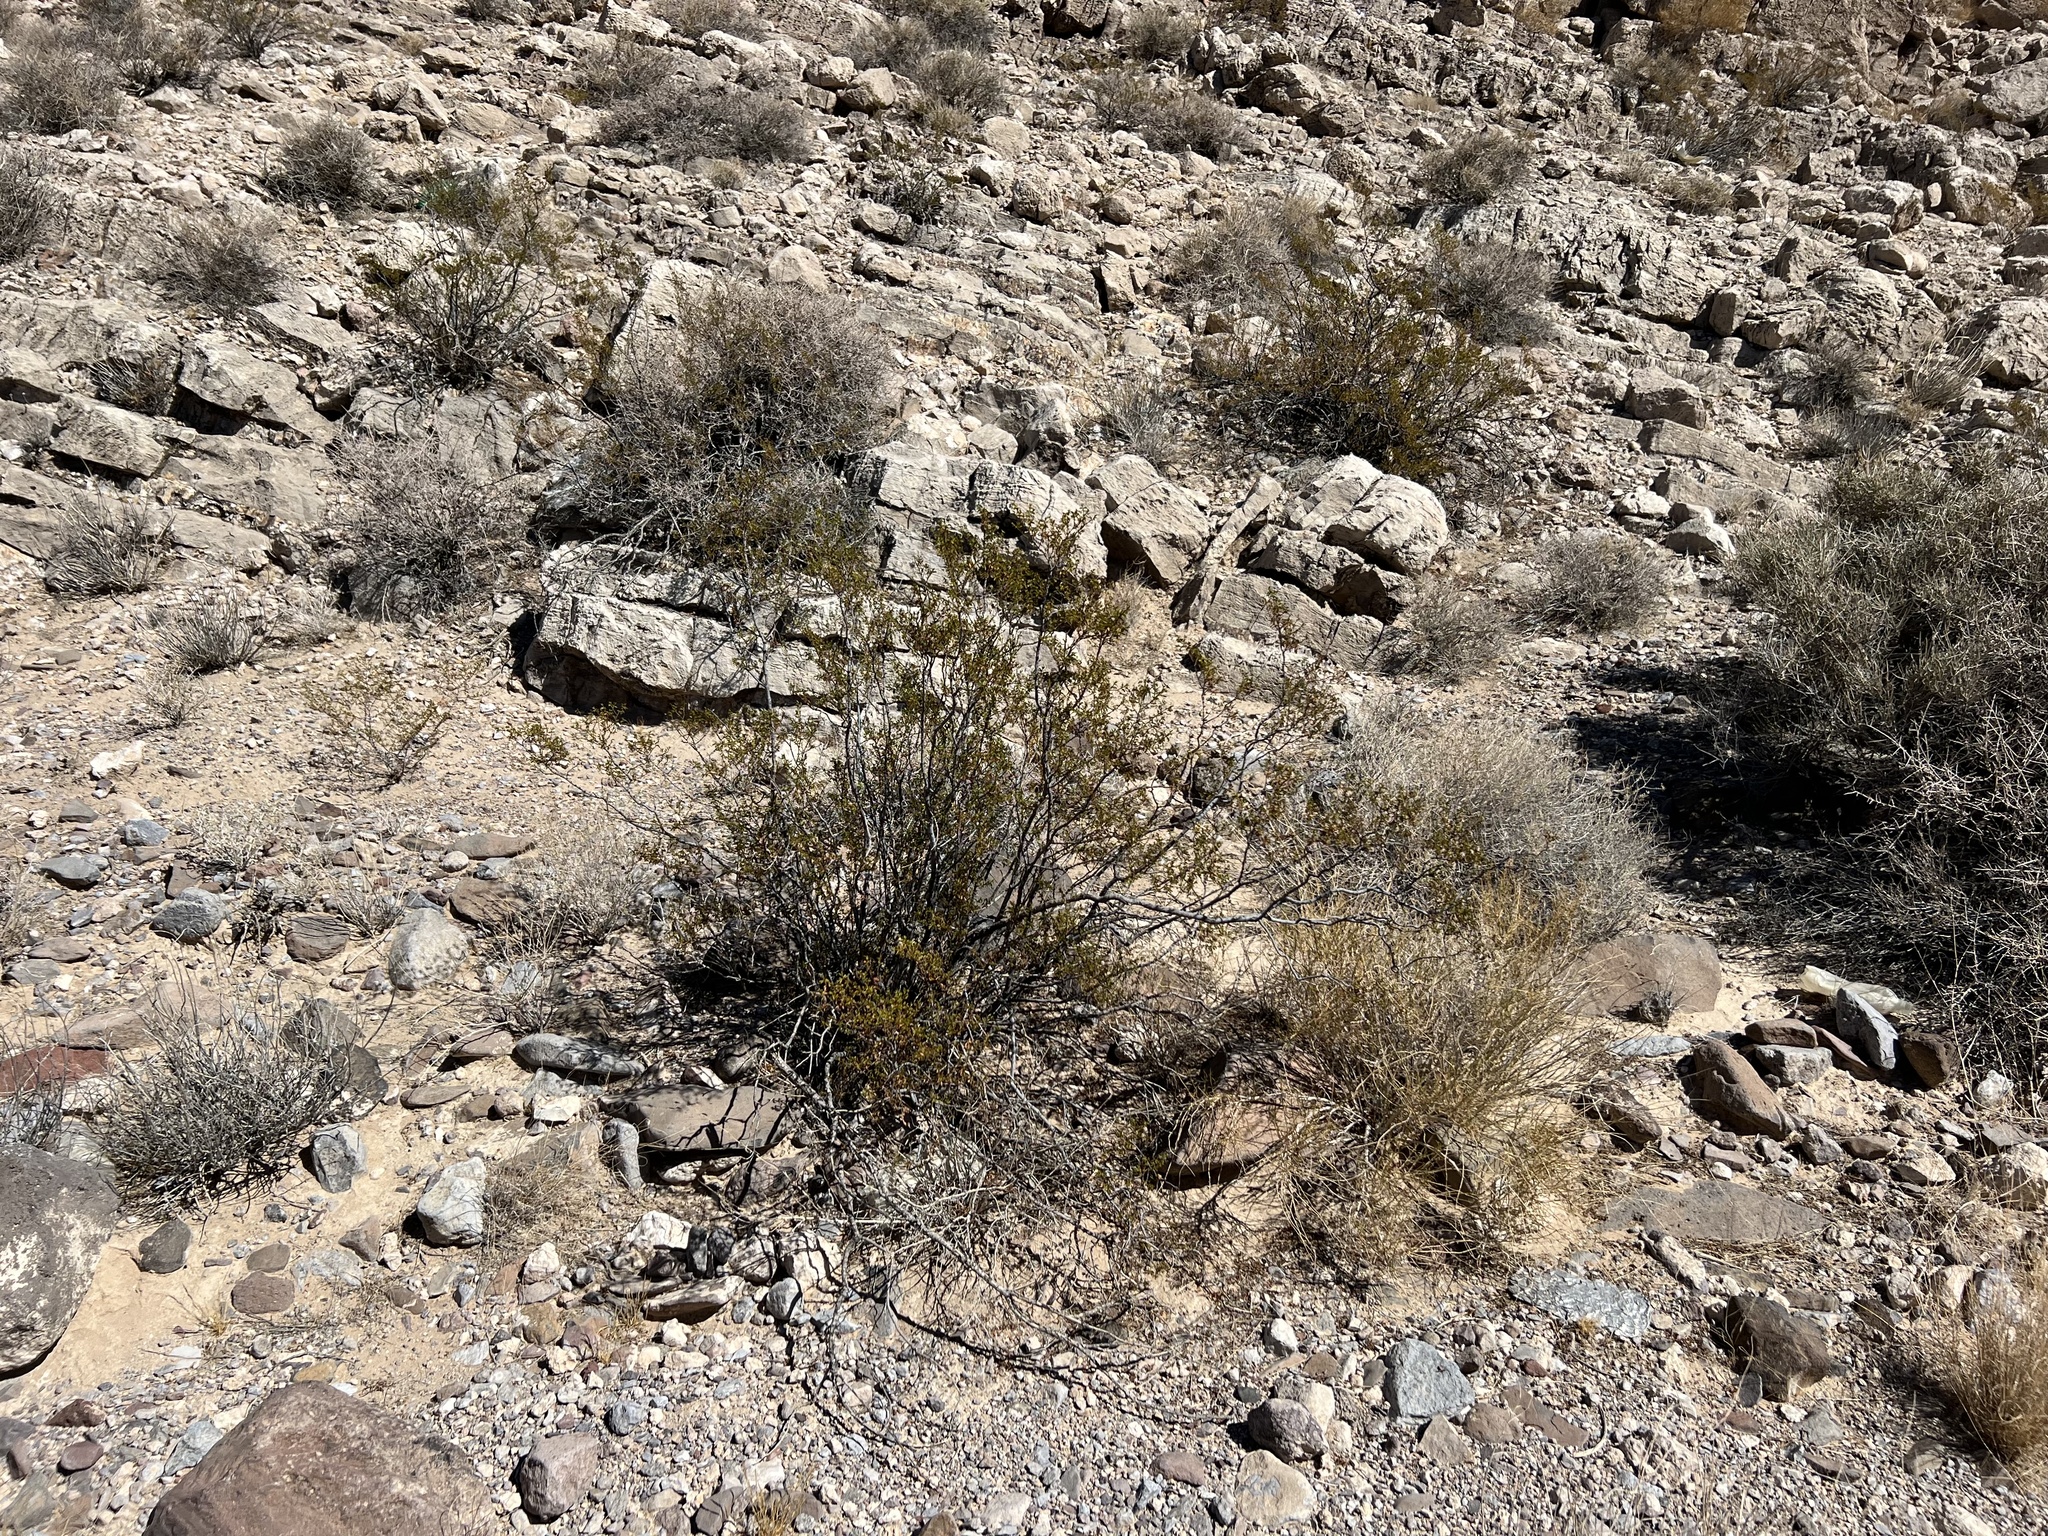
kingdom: Plantae
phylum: Tracheophyta
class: Magnoliopsida
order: Zygophyllales
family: Zygophyllaceae
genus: Larrea
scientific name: Larrea tridentata
